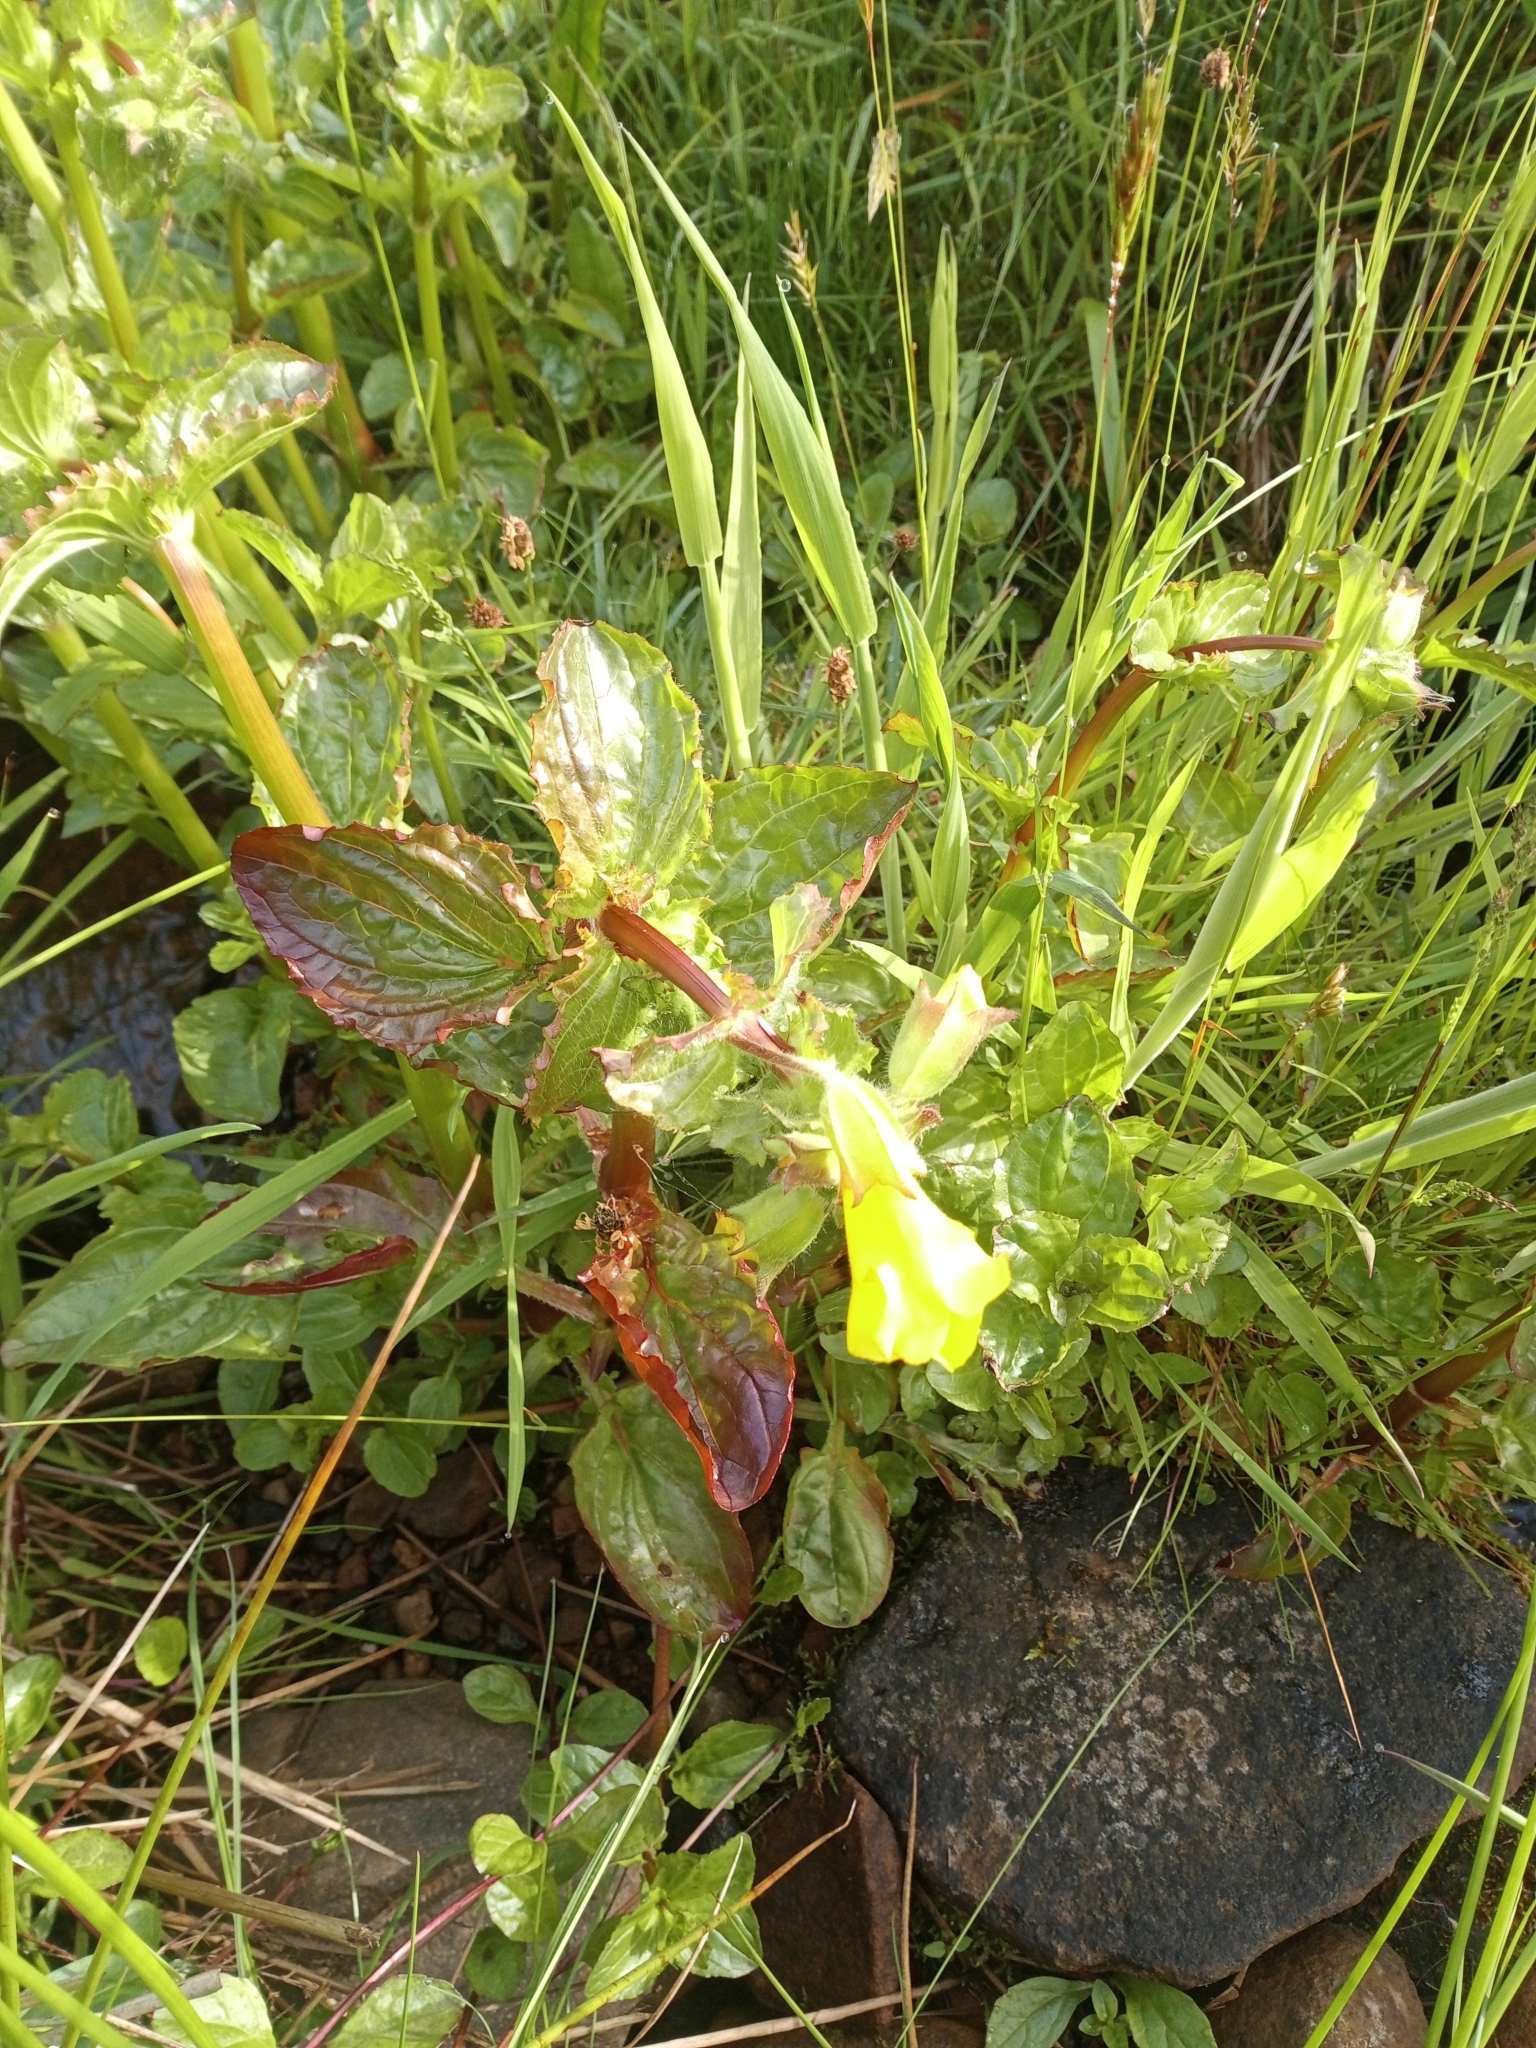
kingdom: Plantae
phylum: Tracheophyta
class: Magnoliopsida
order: Lamiales
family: Phrymaceae
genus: Erythranthe
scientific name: Erythranthe guttata
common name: Monkeyflower
